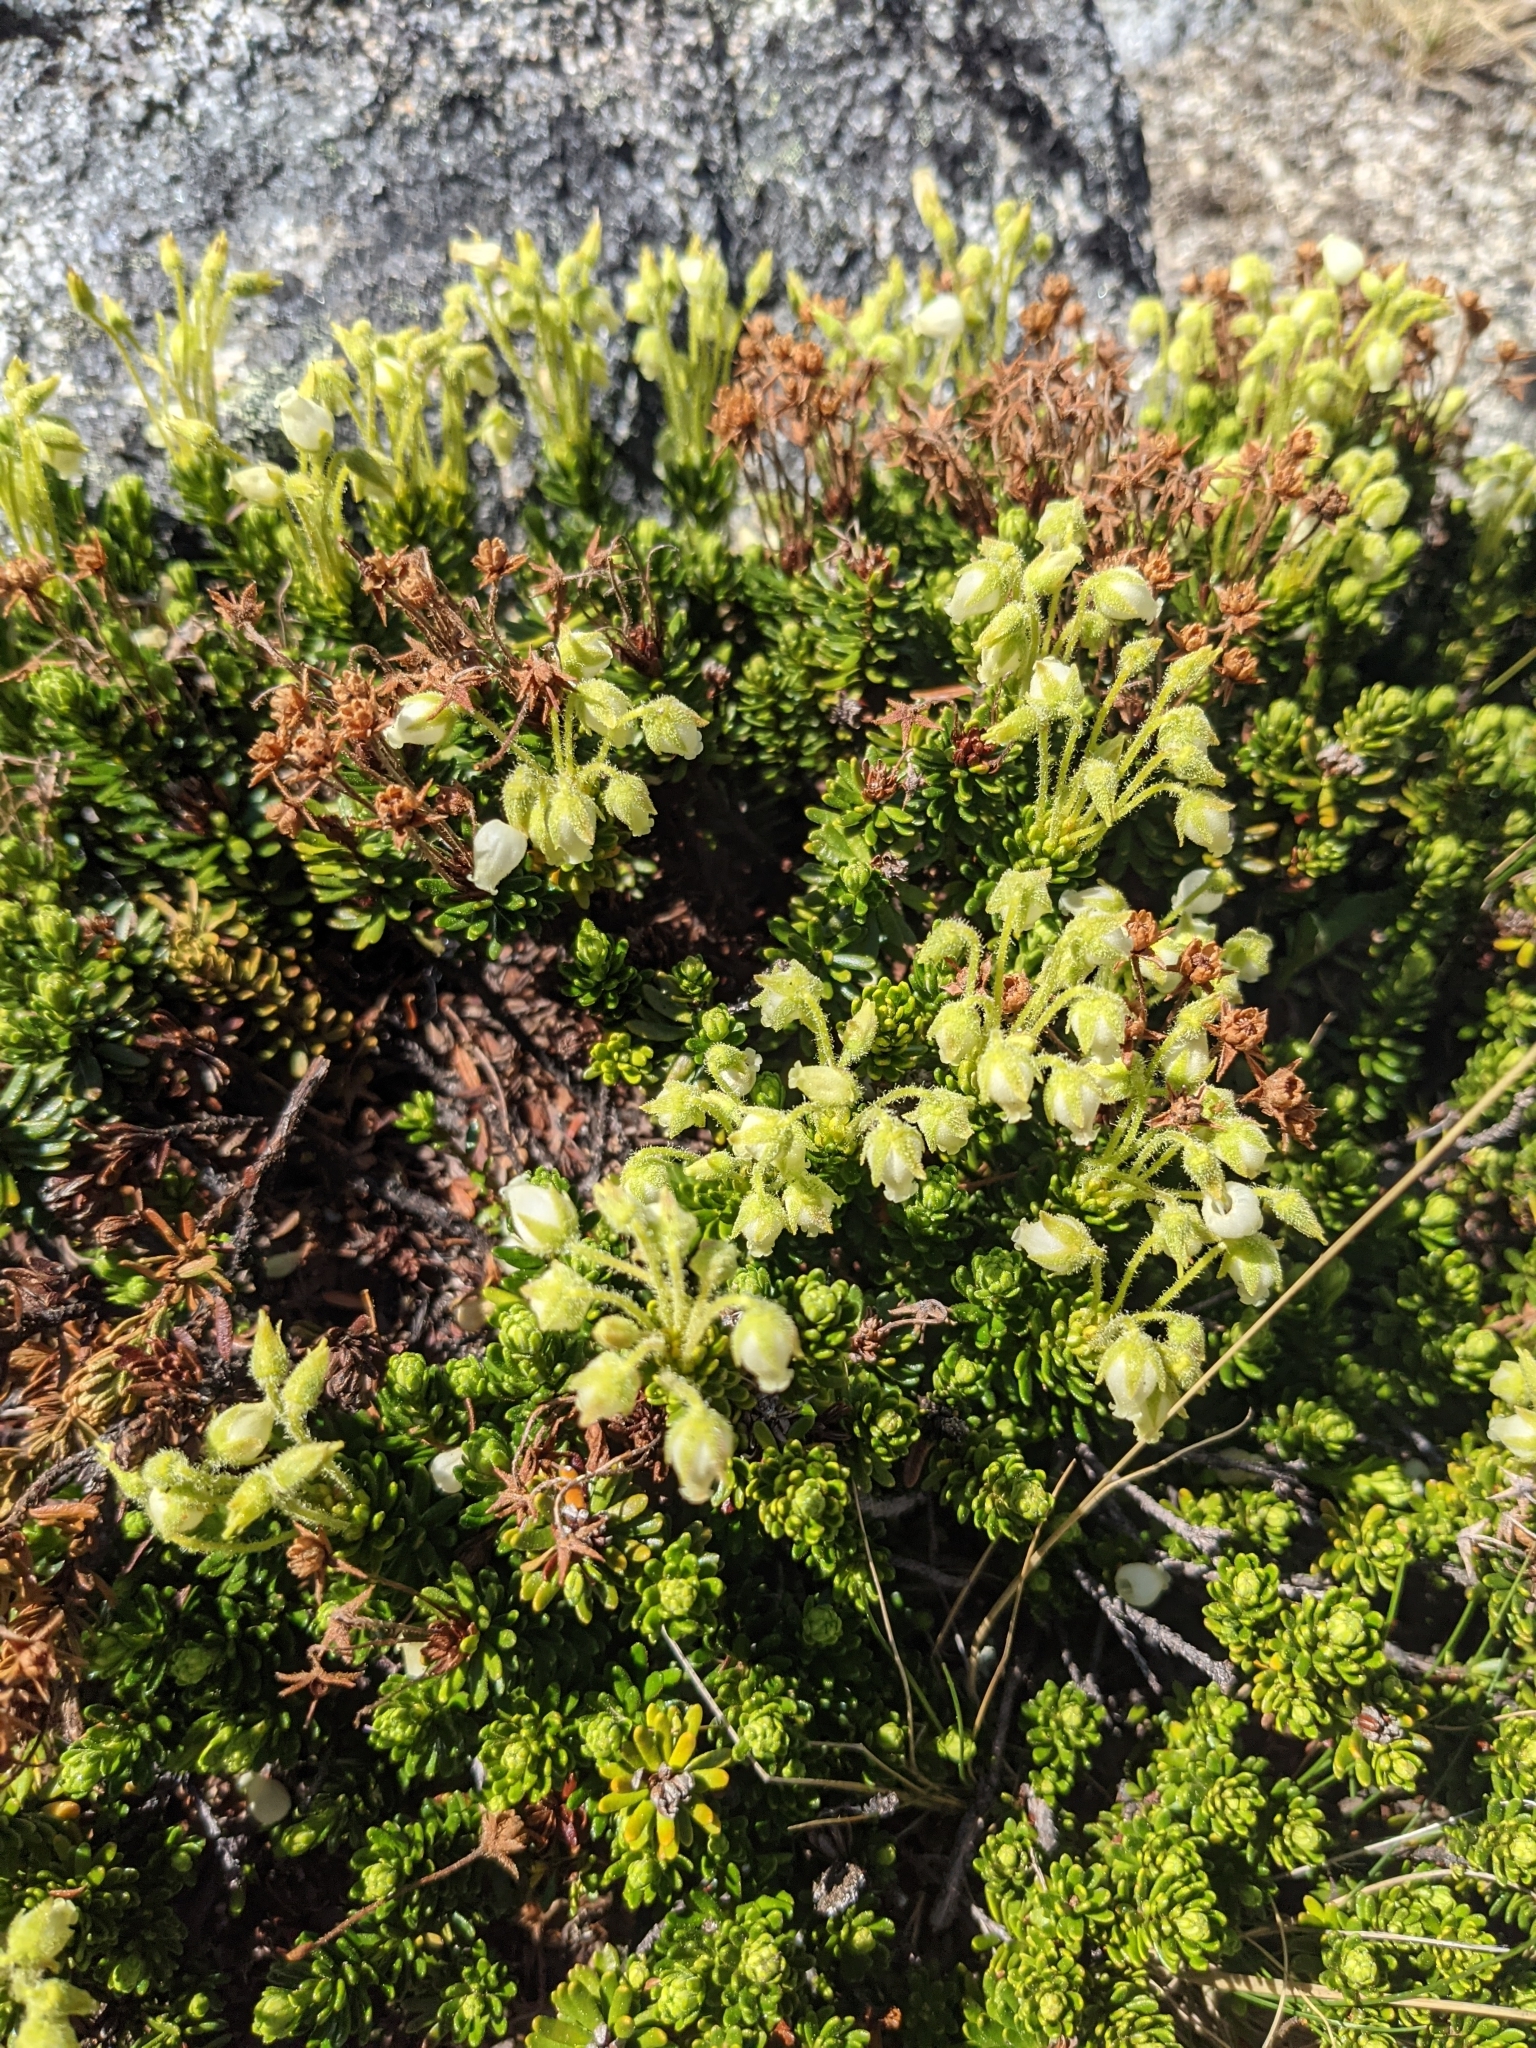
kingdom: Plantae
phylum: Tracheophyta
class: Magnoliopsida
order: Ericales
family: Ericaceae
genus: Phyllodoce
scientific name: Phyllodoce glanduliflora
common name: Cream mountain heather
